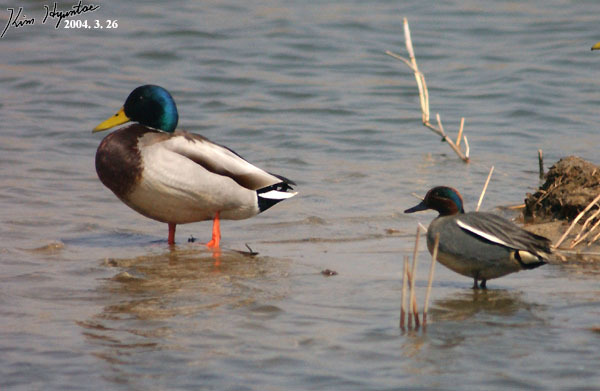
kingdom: Animalia
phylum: Chordata
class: Aves
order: Anseriformes
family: Anatidae
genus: Anas
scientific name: Anas platyrhynchos
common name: Mallard
